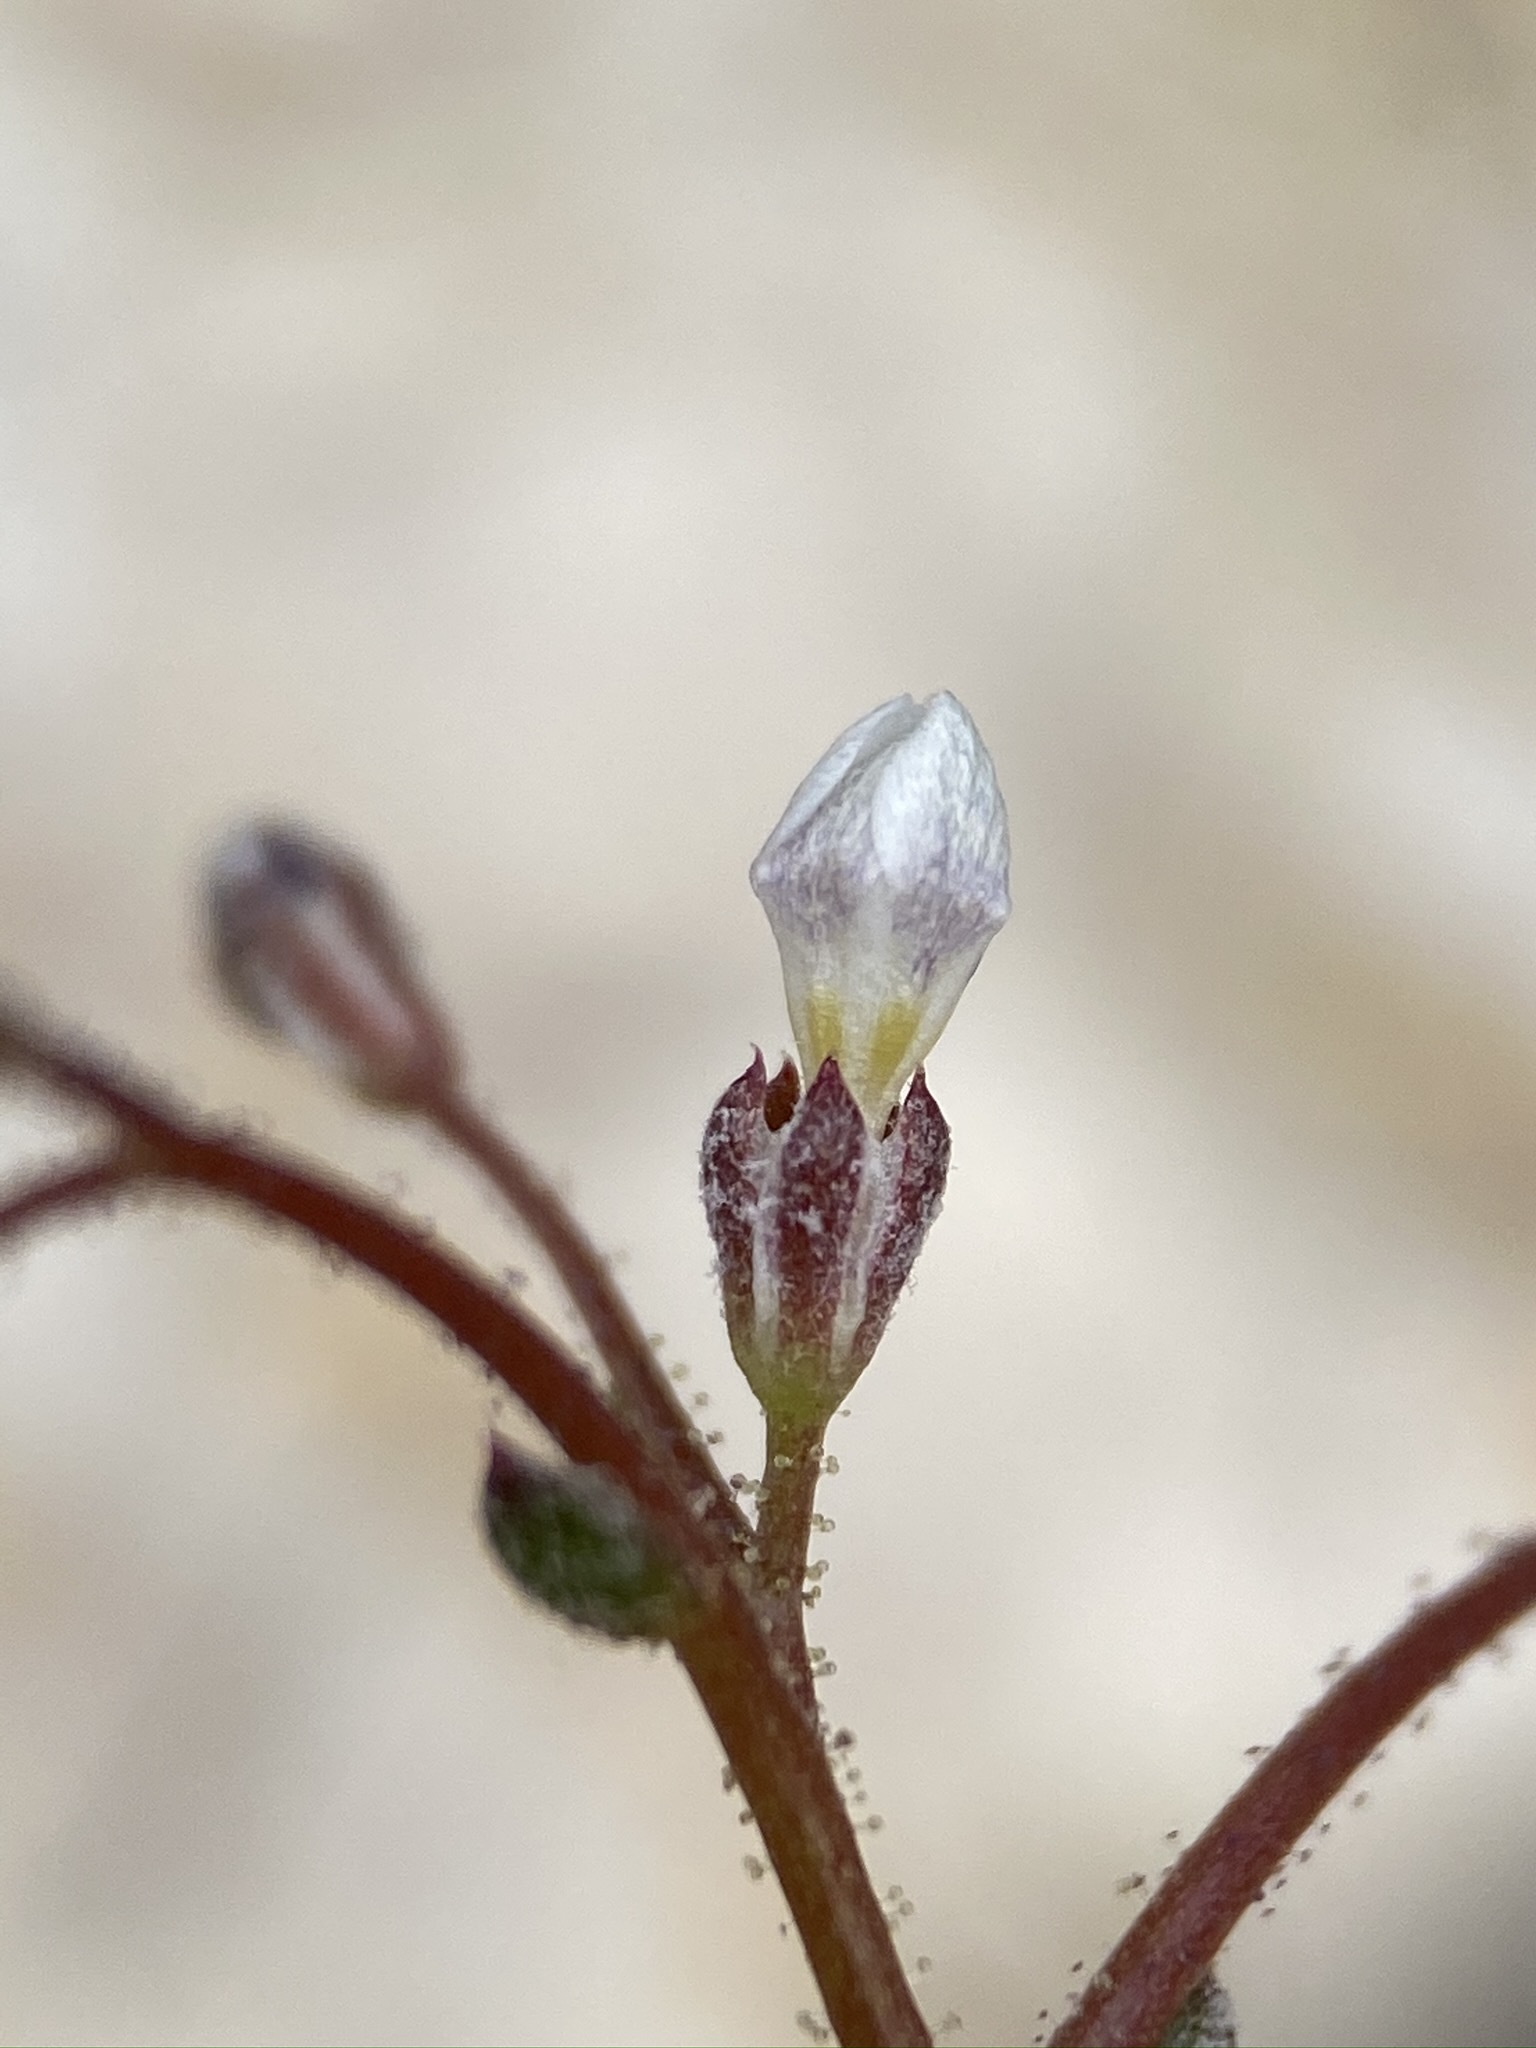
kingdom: Plantae
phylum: Tracheophyta
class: Magnoliopsida
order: Ericales
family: Polemoniaceae
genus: Gilia
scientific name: Gilia clokeyi
